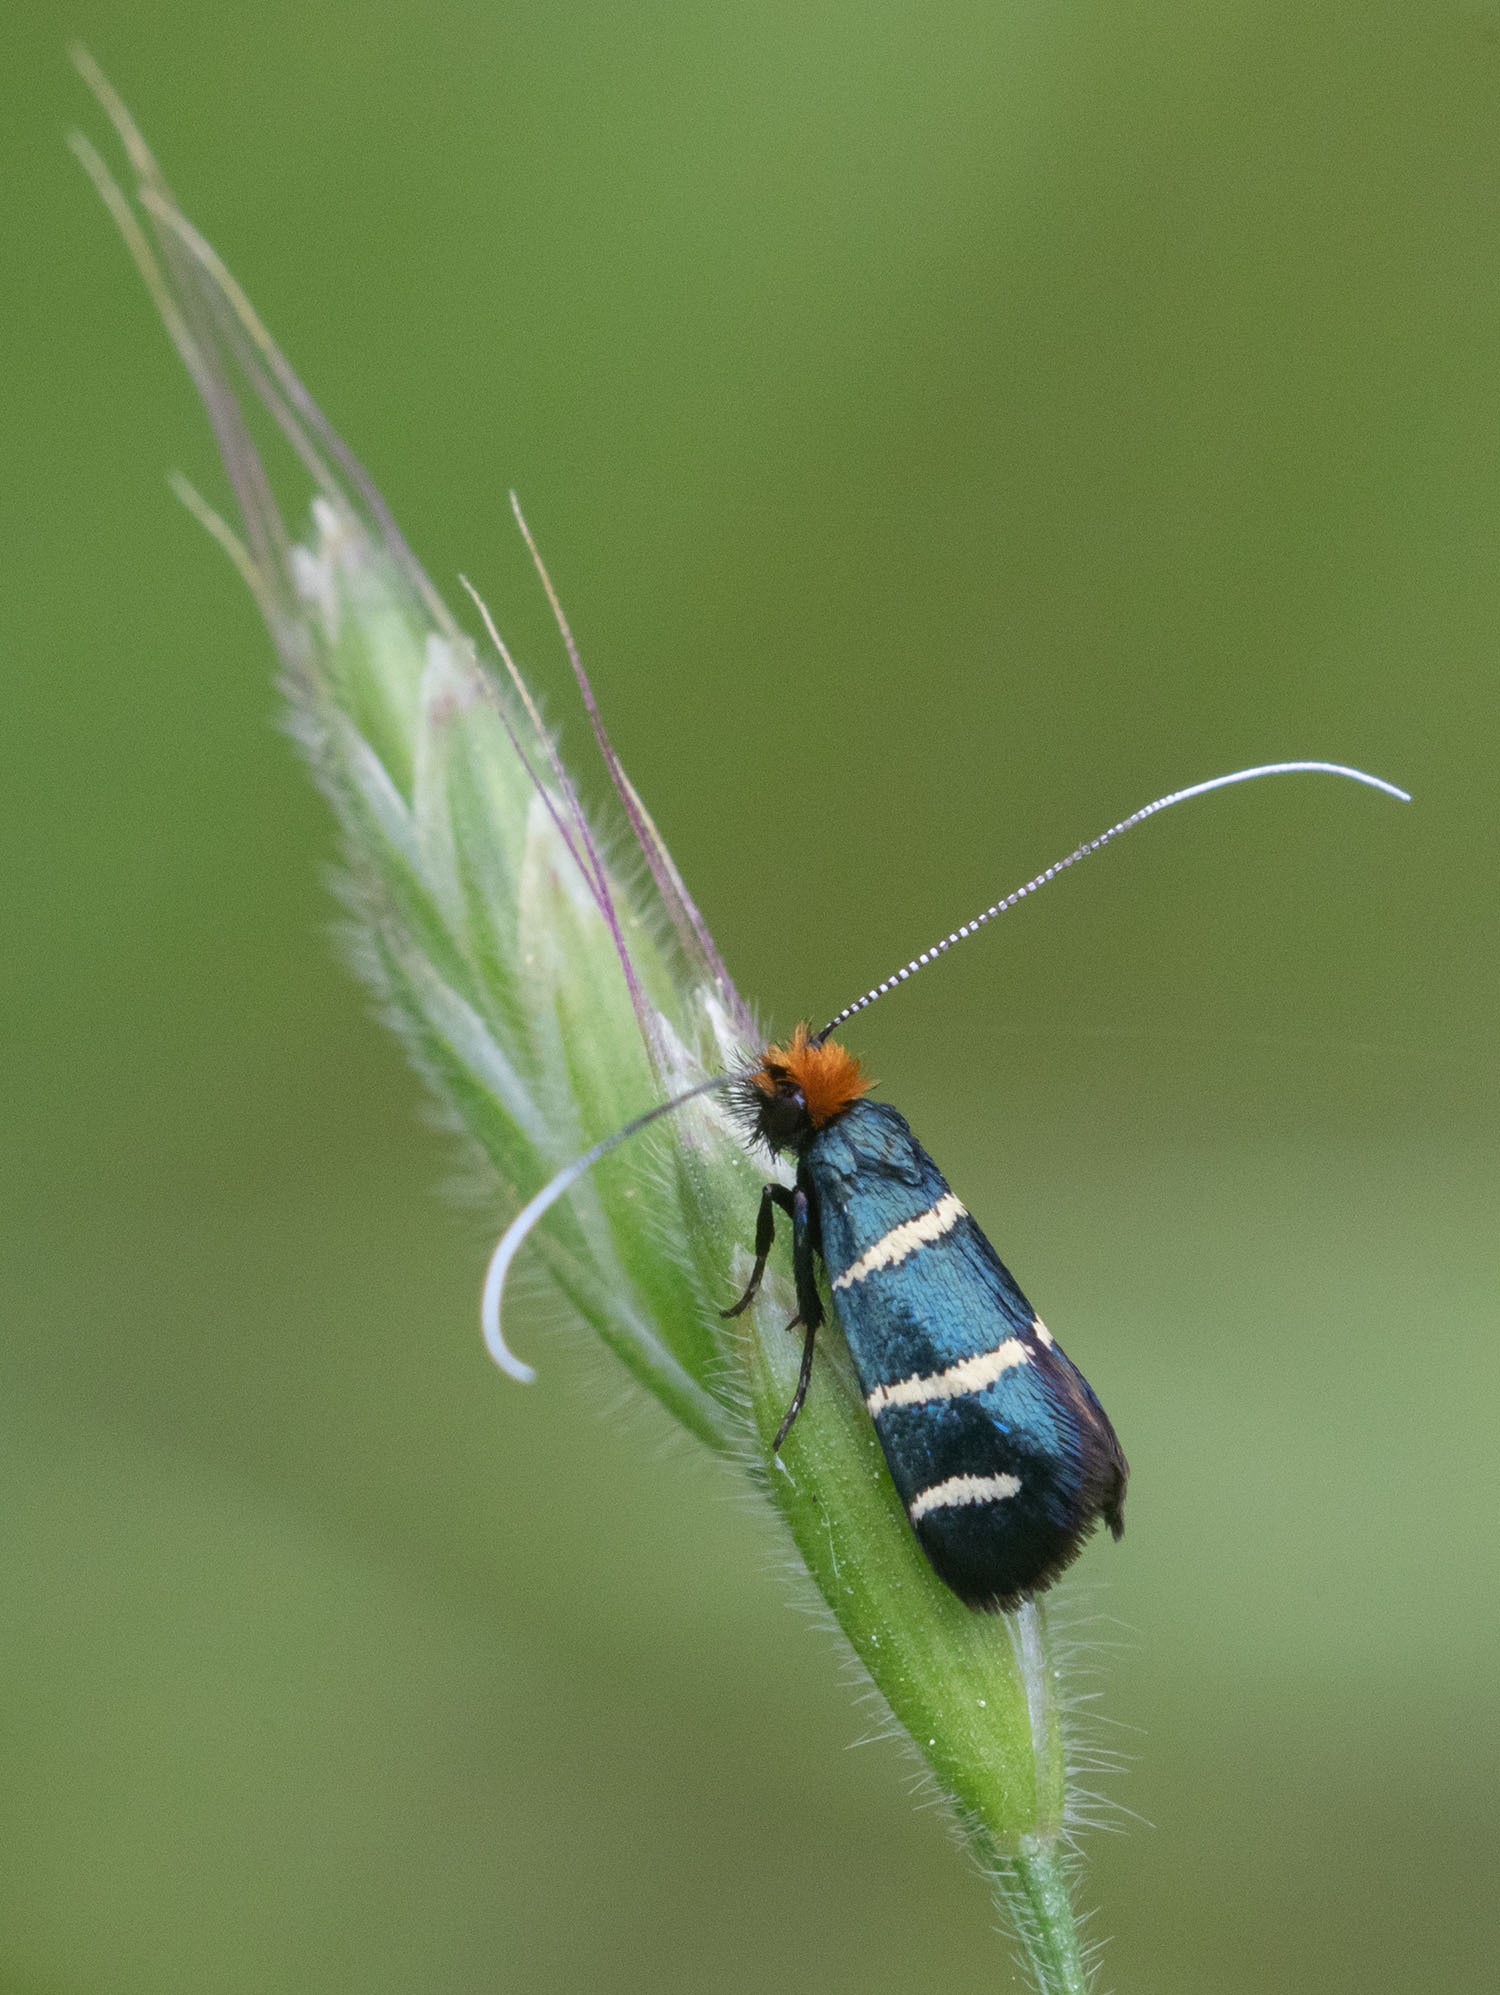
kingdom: Animalia
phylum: Arthropoda
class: Insecta
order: Lepidoptera
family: Adelidae
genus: Adela
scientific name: Adela trigrapha
